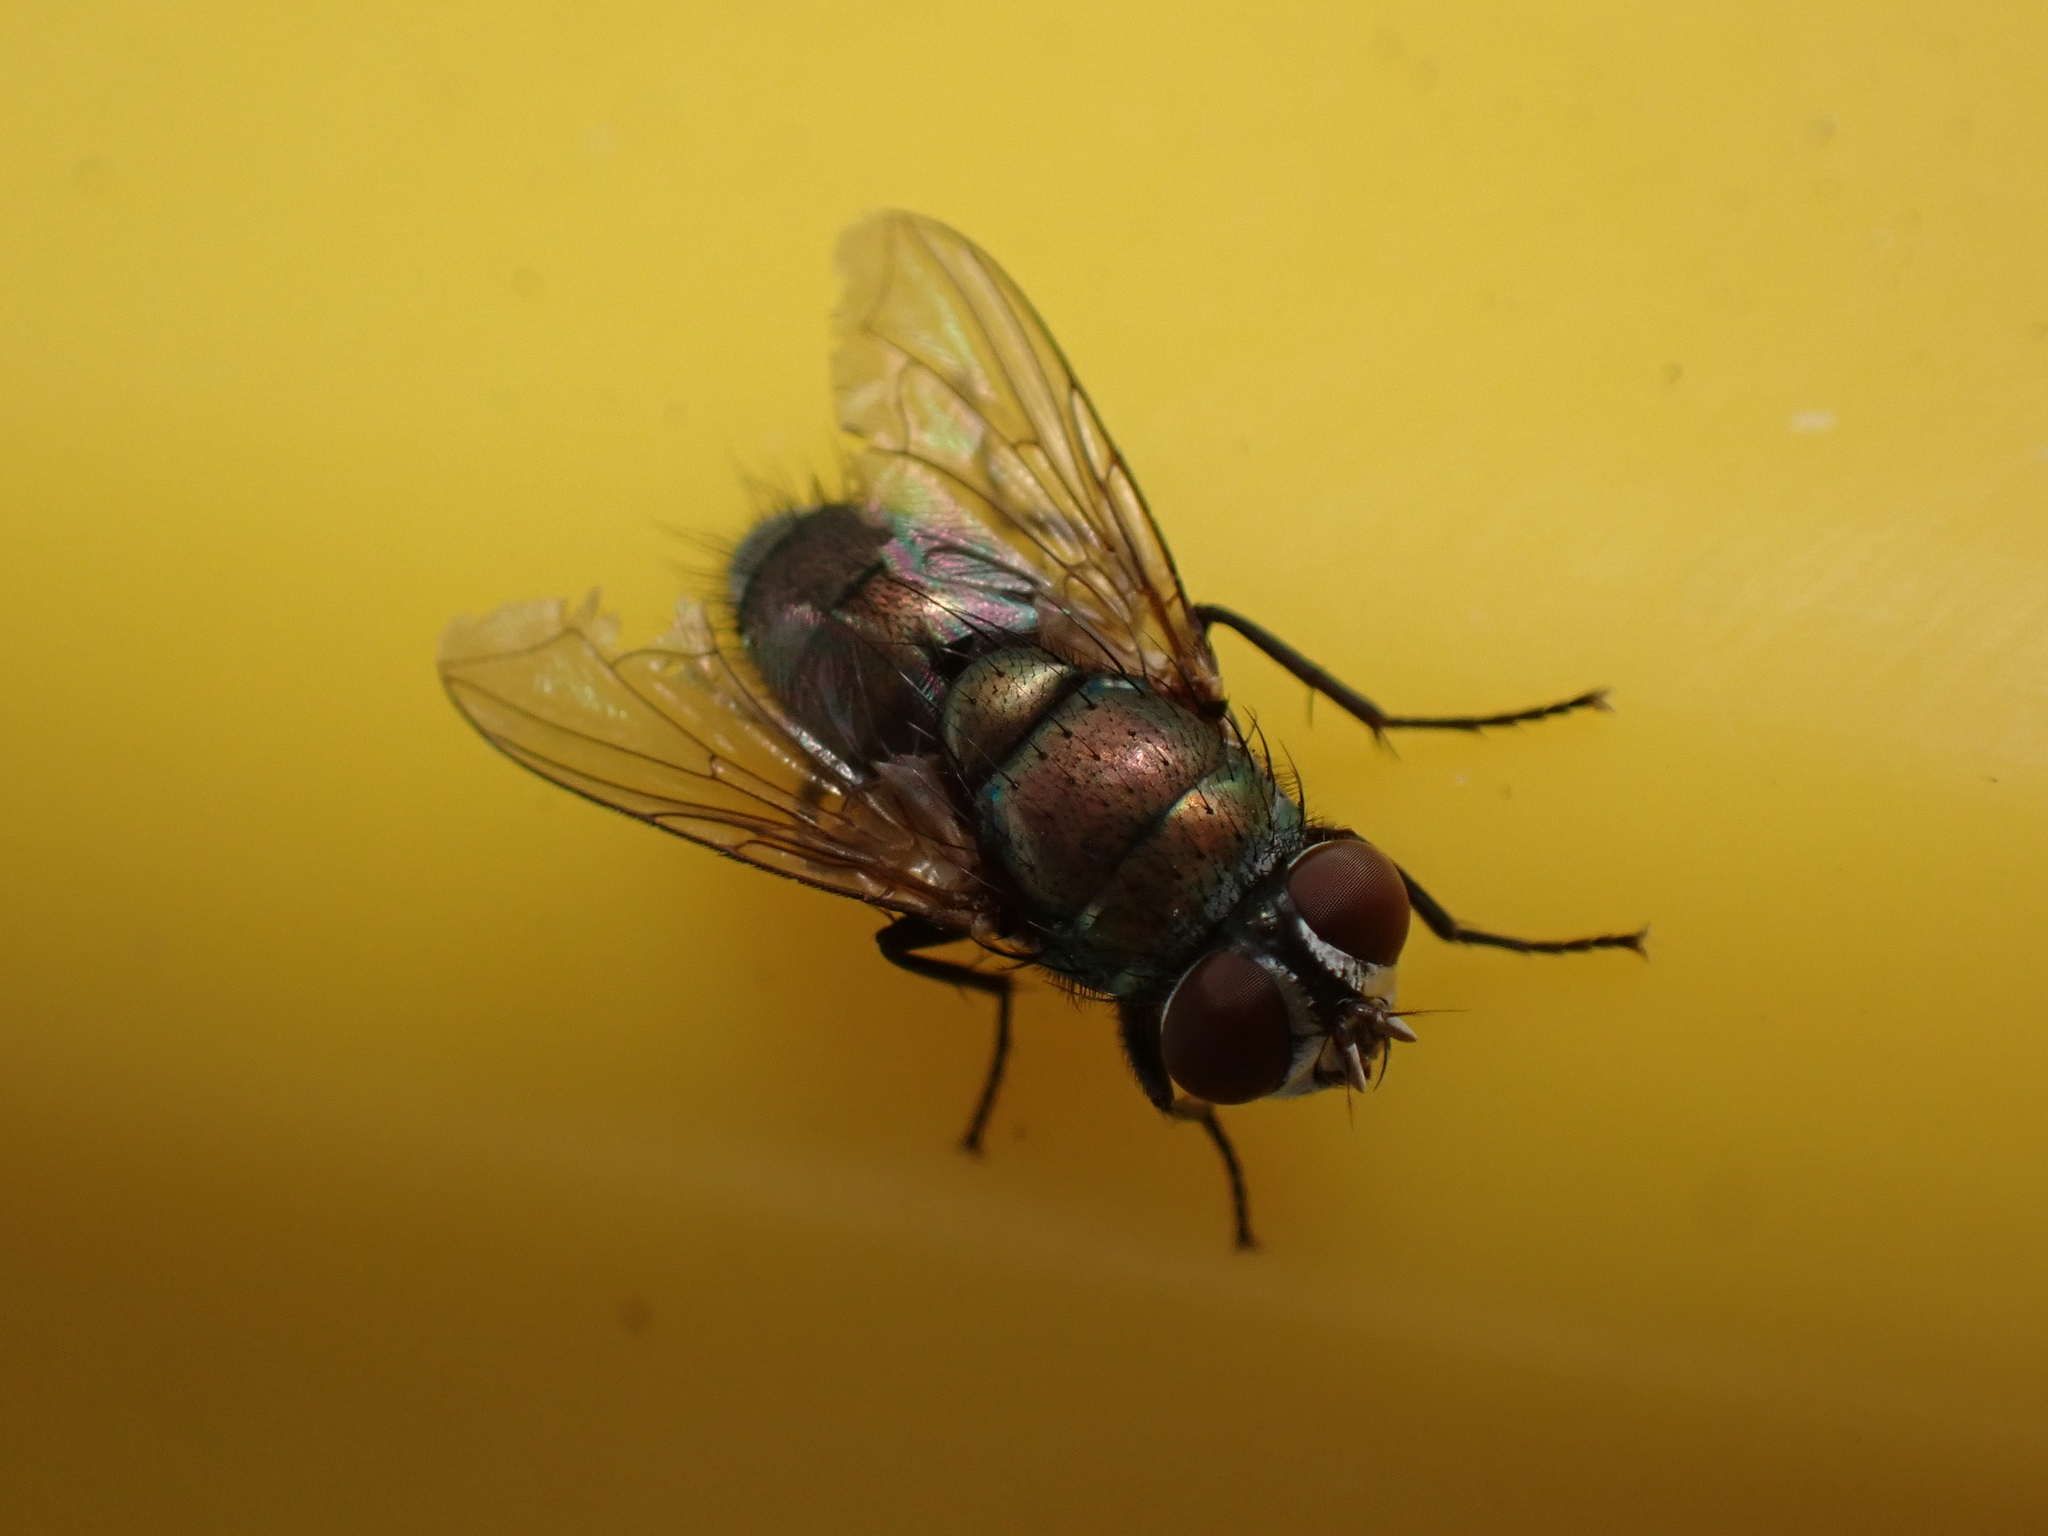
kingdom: Animalia
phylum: Arthropoda
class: Insecta
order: Diptera
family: Calliphoridae
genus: Lucilia
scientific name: Lucilia cuprina
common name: Sheep blow fly
